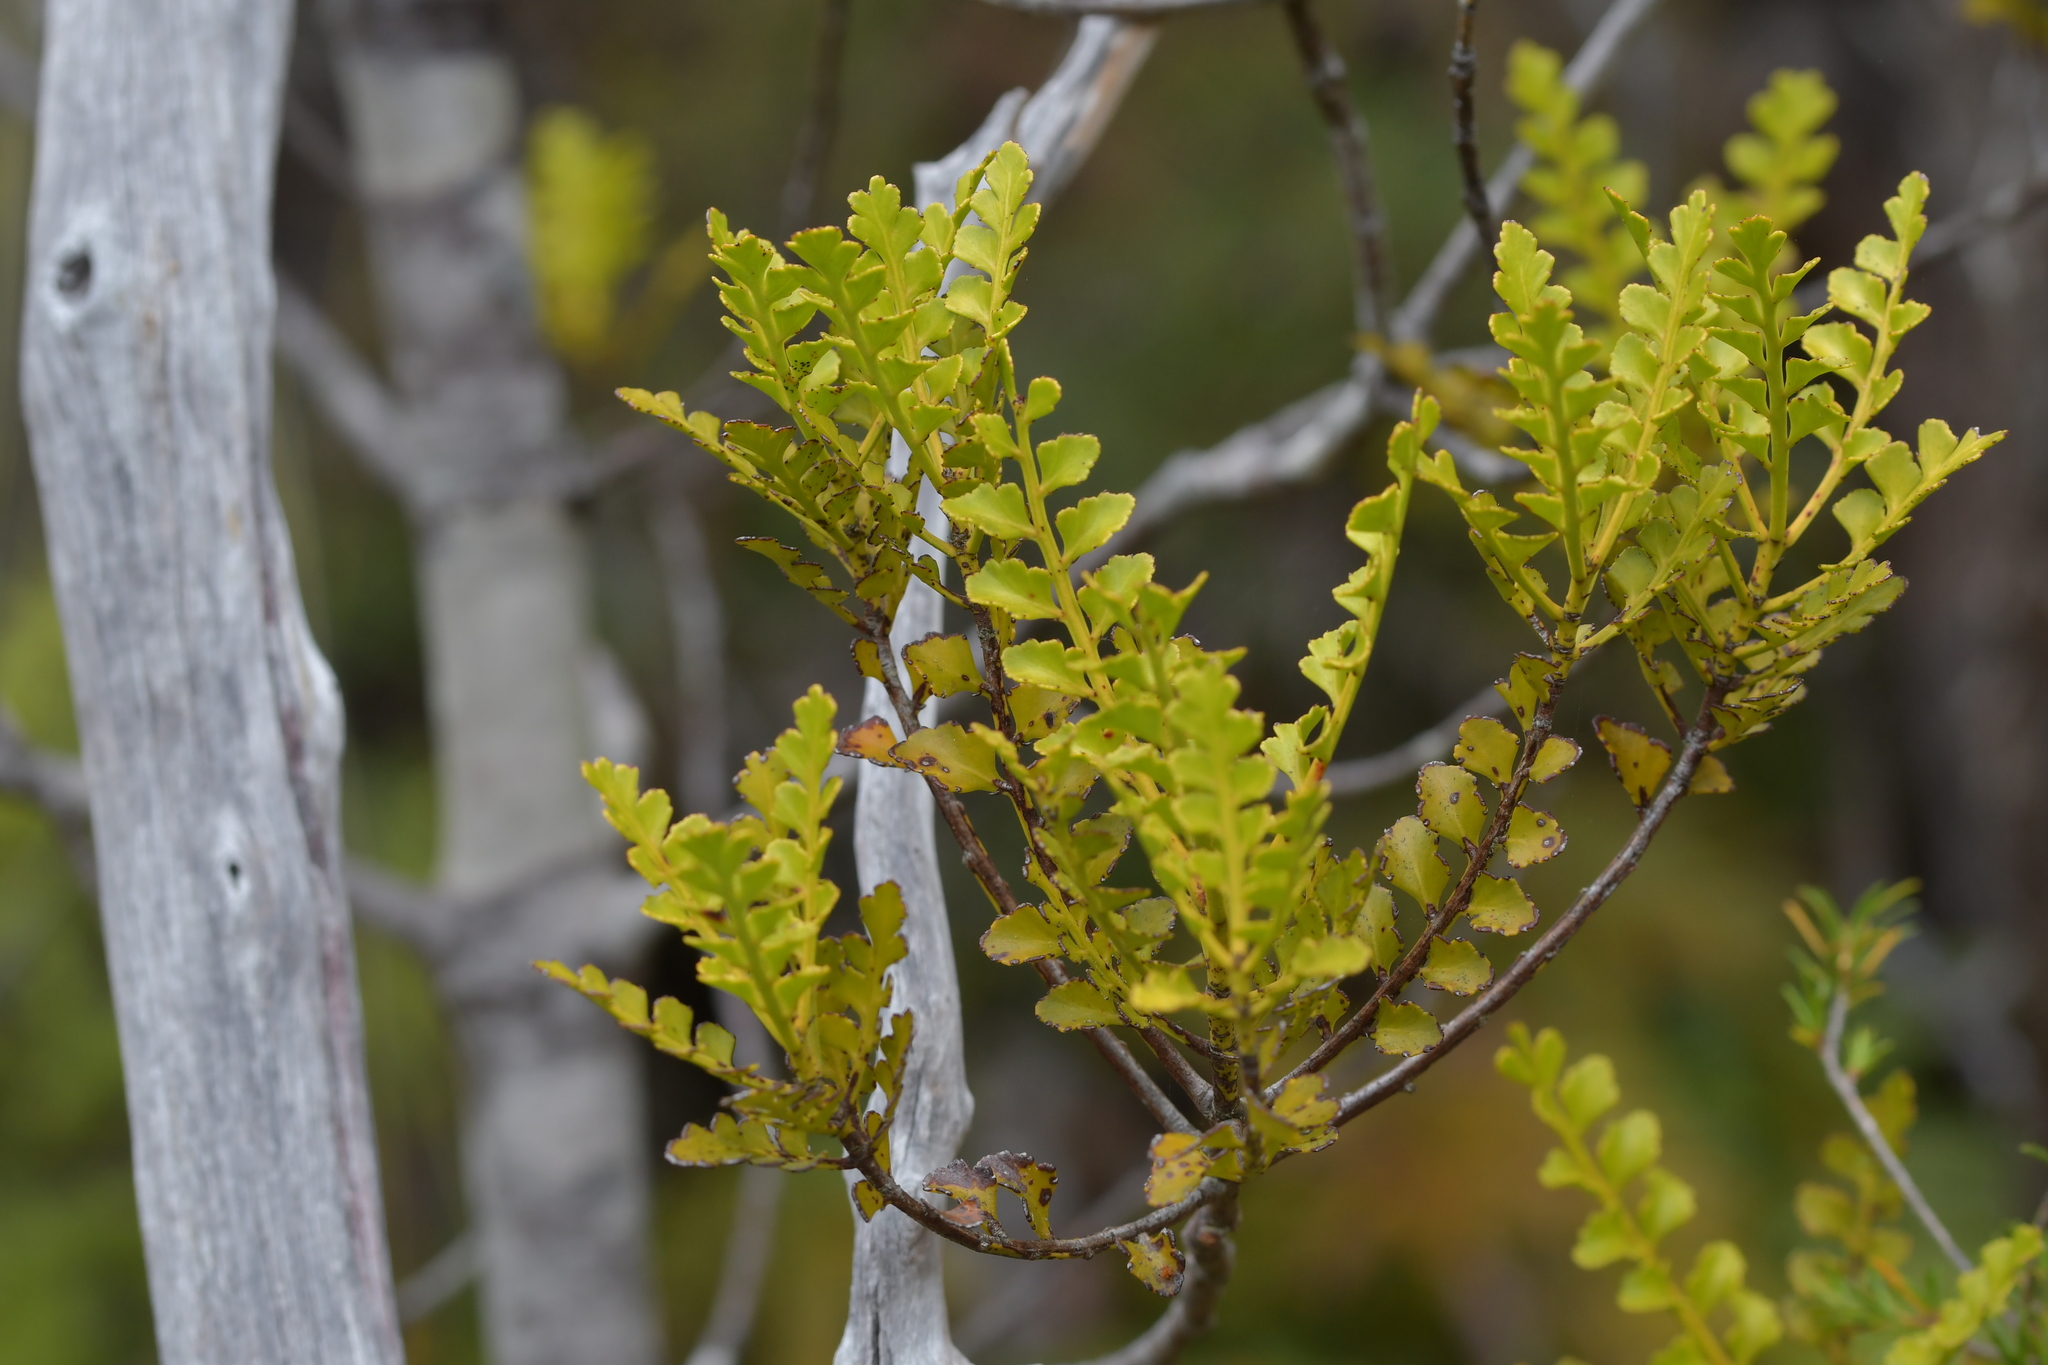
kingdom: Plantae
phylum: Tracheophyta
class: Pinopsida
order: Pinales
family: Phyllocladaceae
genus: Phyllocladus
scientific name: Phyllocladus trichomanoides
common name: Celery pine
